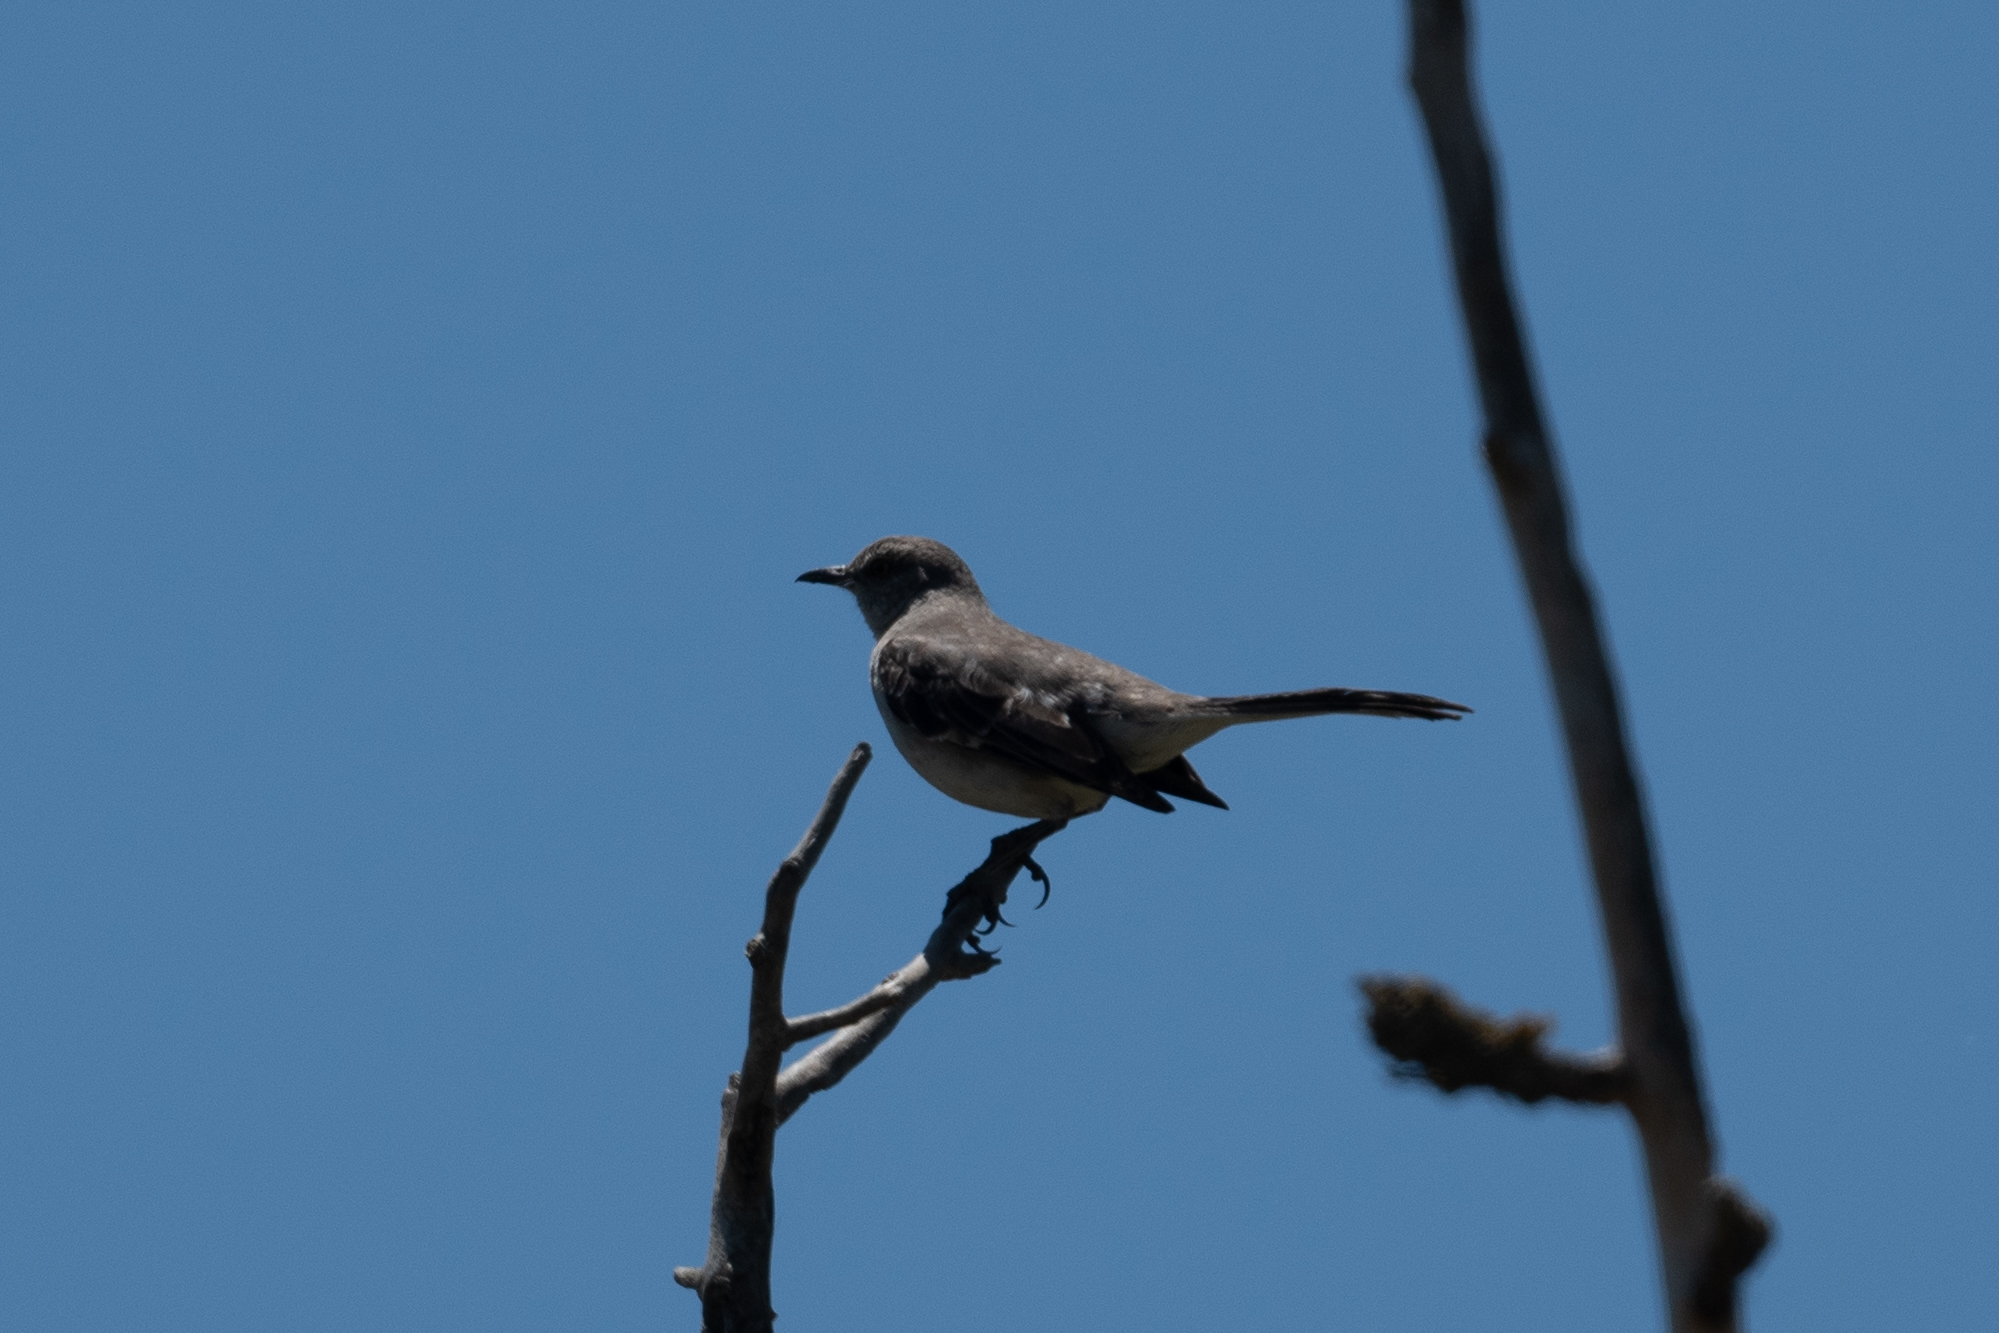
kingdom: Animalia
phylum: Chordata
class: Aves
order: Passeriformes
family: Mimidae
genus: Mimus
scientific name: Mimus polyglottos
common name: Northern mockingbird
